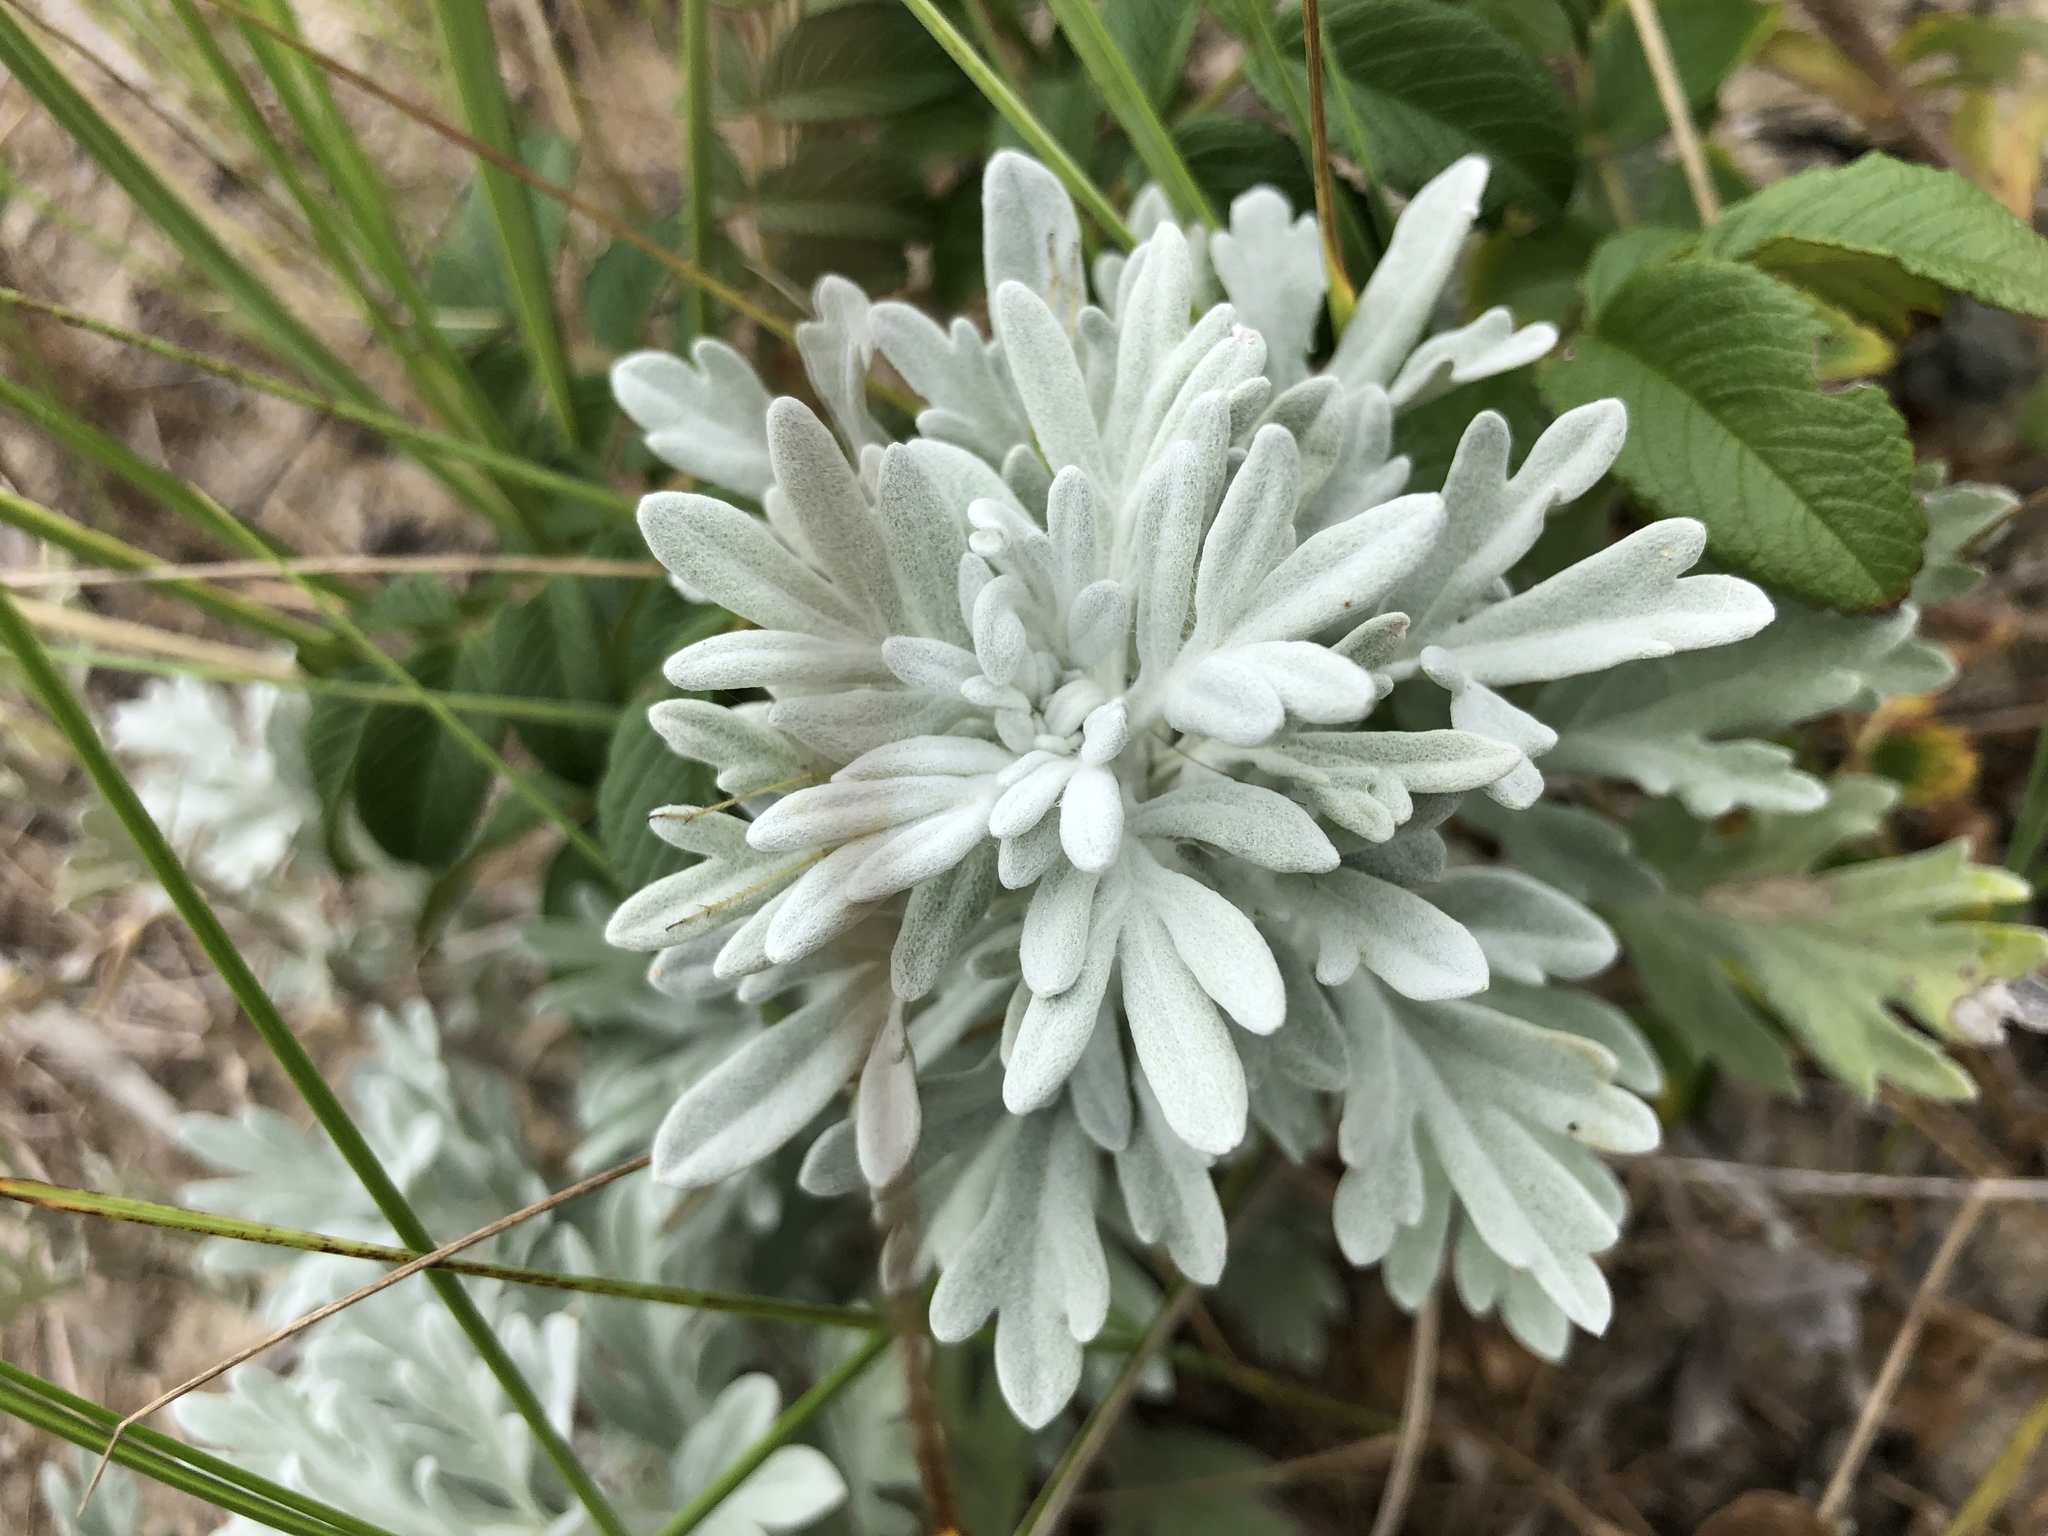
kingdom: Plantae
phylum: Tracheophyta
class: Magnoliopsida
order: Asterales
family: Asteraceae
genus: Artemisia
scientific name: Artemisia stelleriana
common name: Beach wormwood
